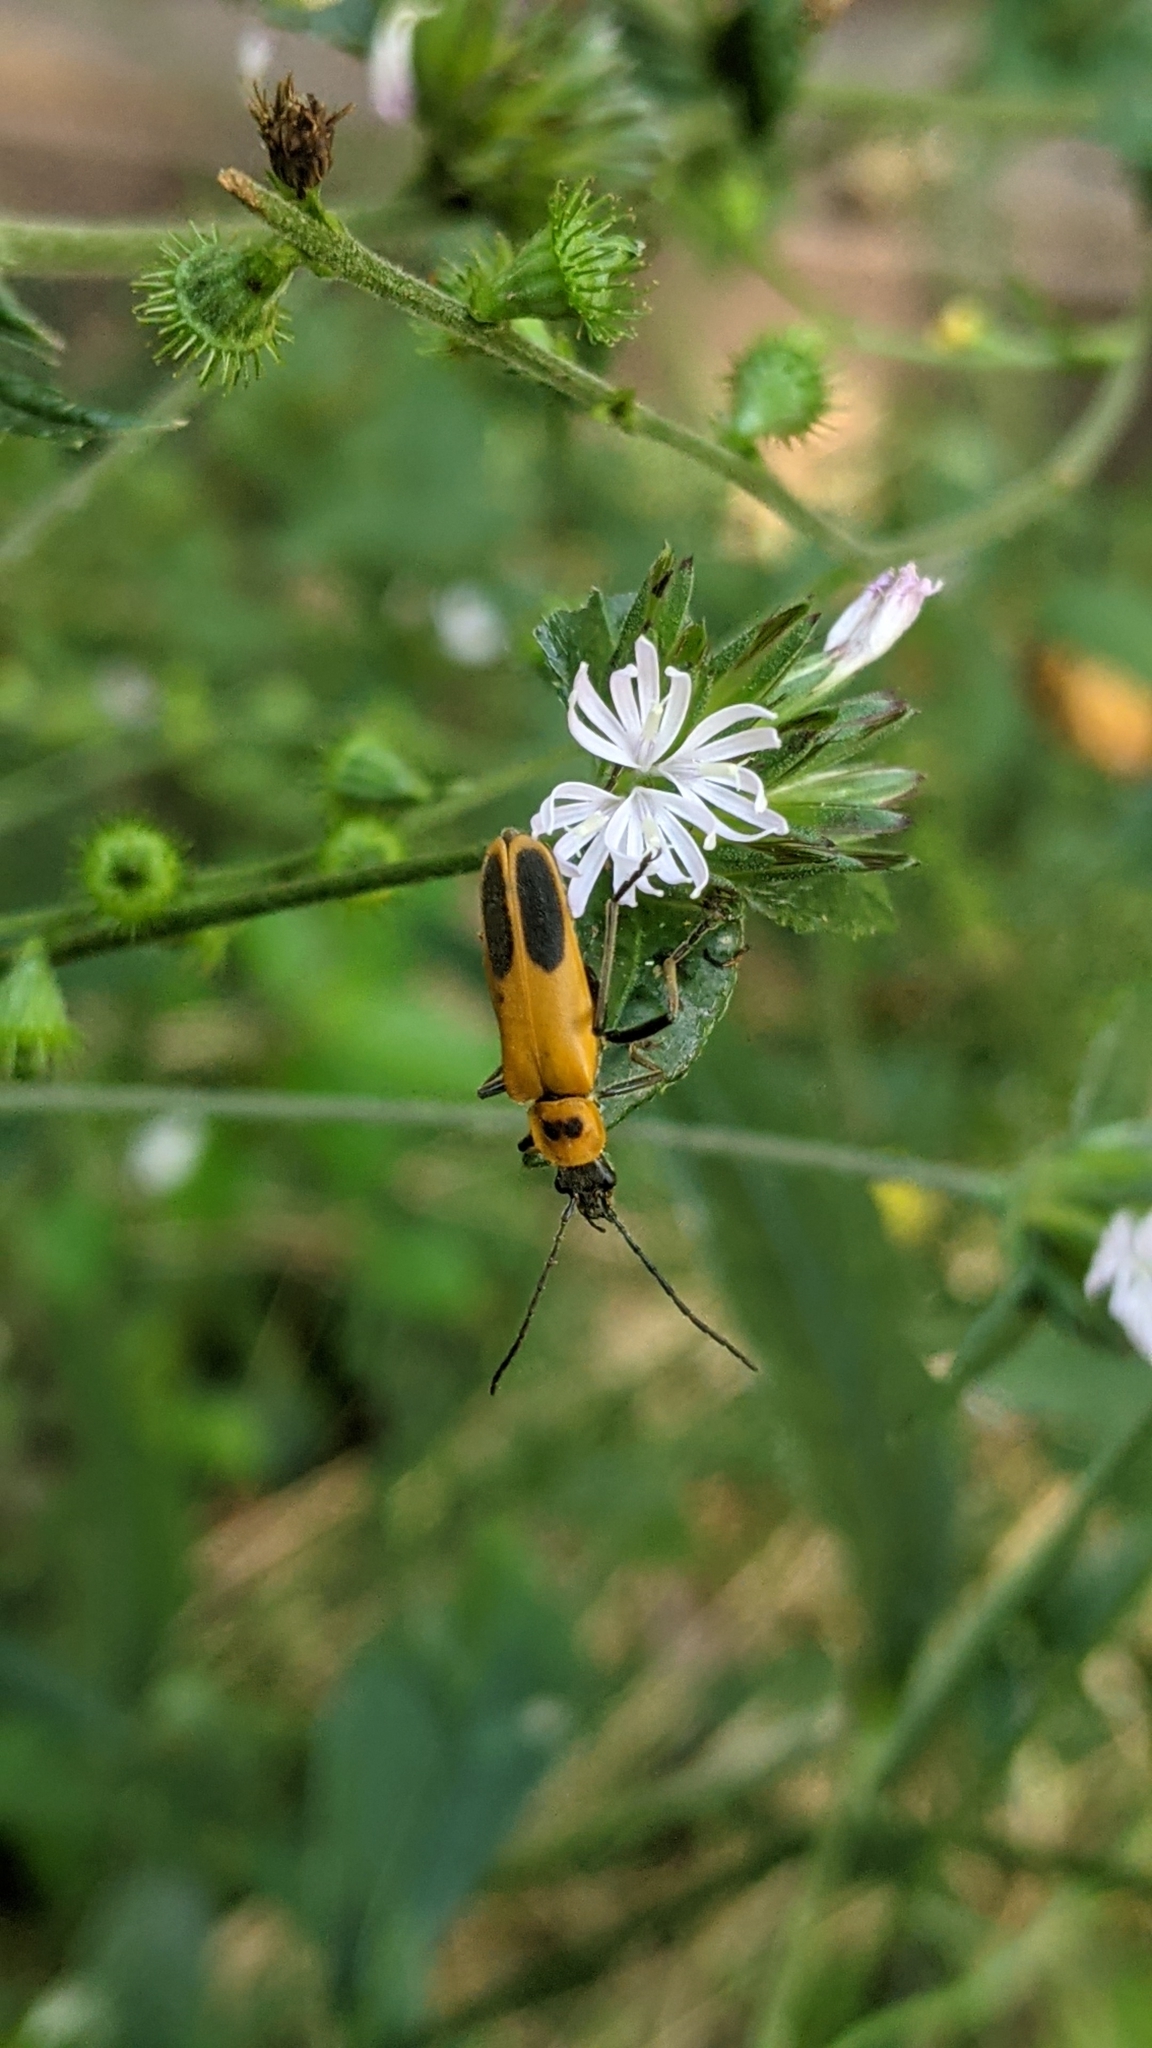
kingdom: Animalia
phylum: Arthropoda
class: Insecta
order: Coleoptera
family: Cantharidae
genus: Chauliognathus
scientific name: Chauliognathus pensylvanicus
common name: Goldenrod soldier beetle
